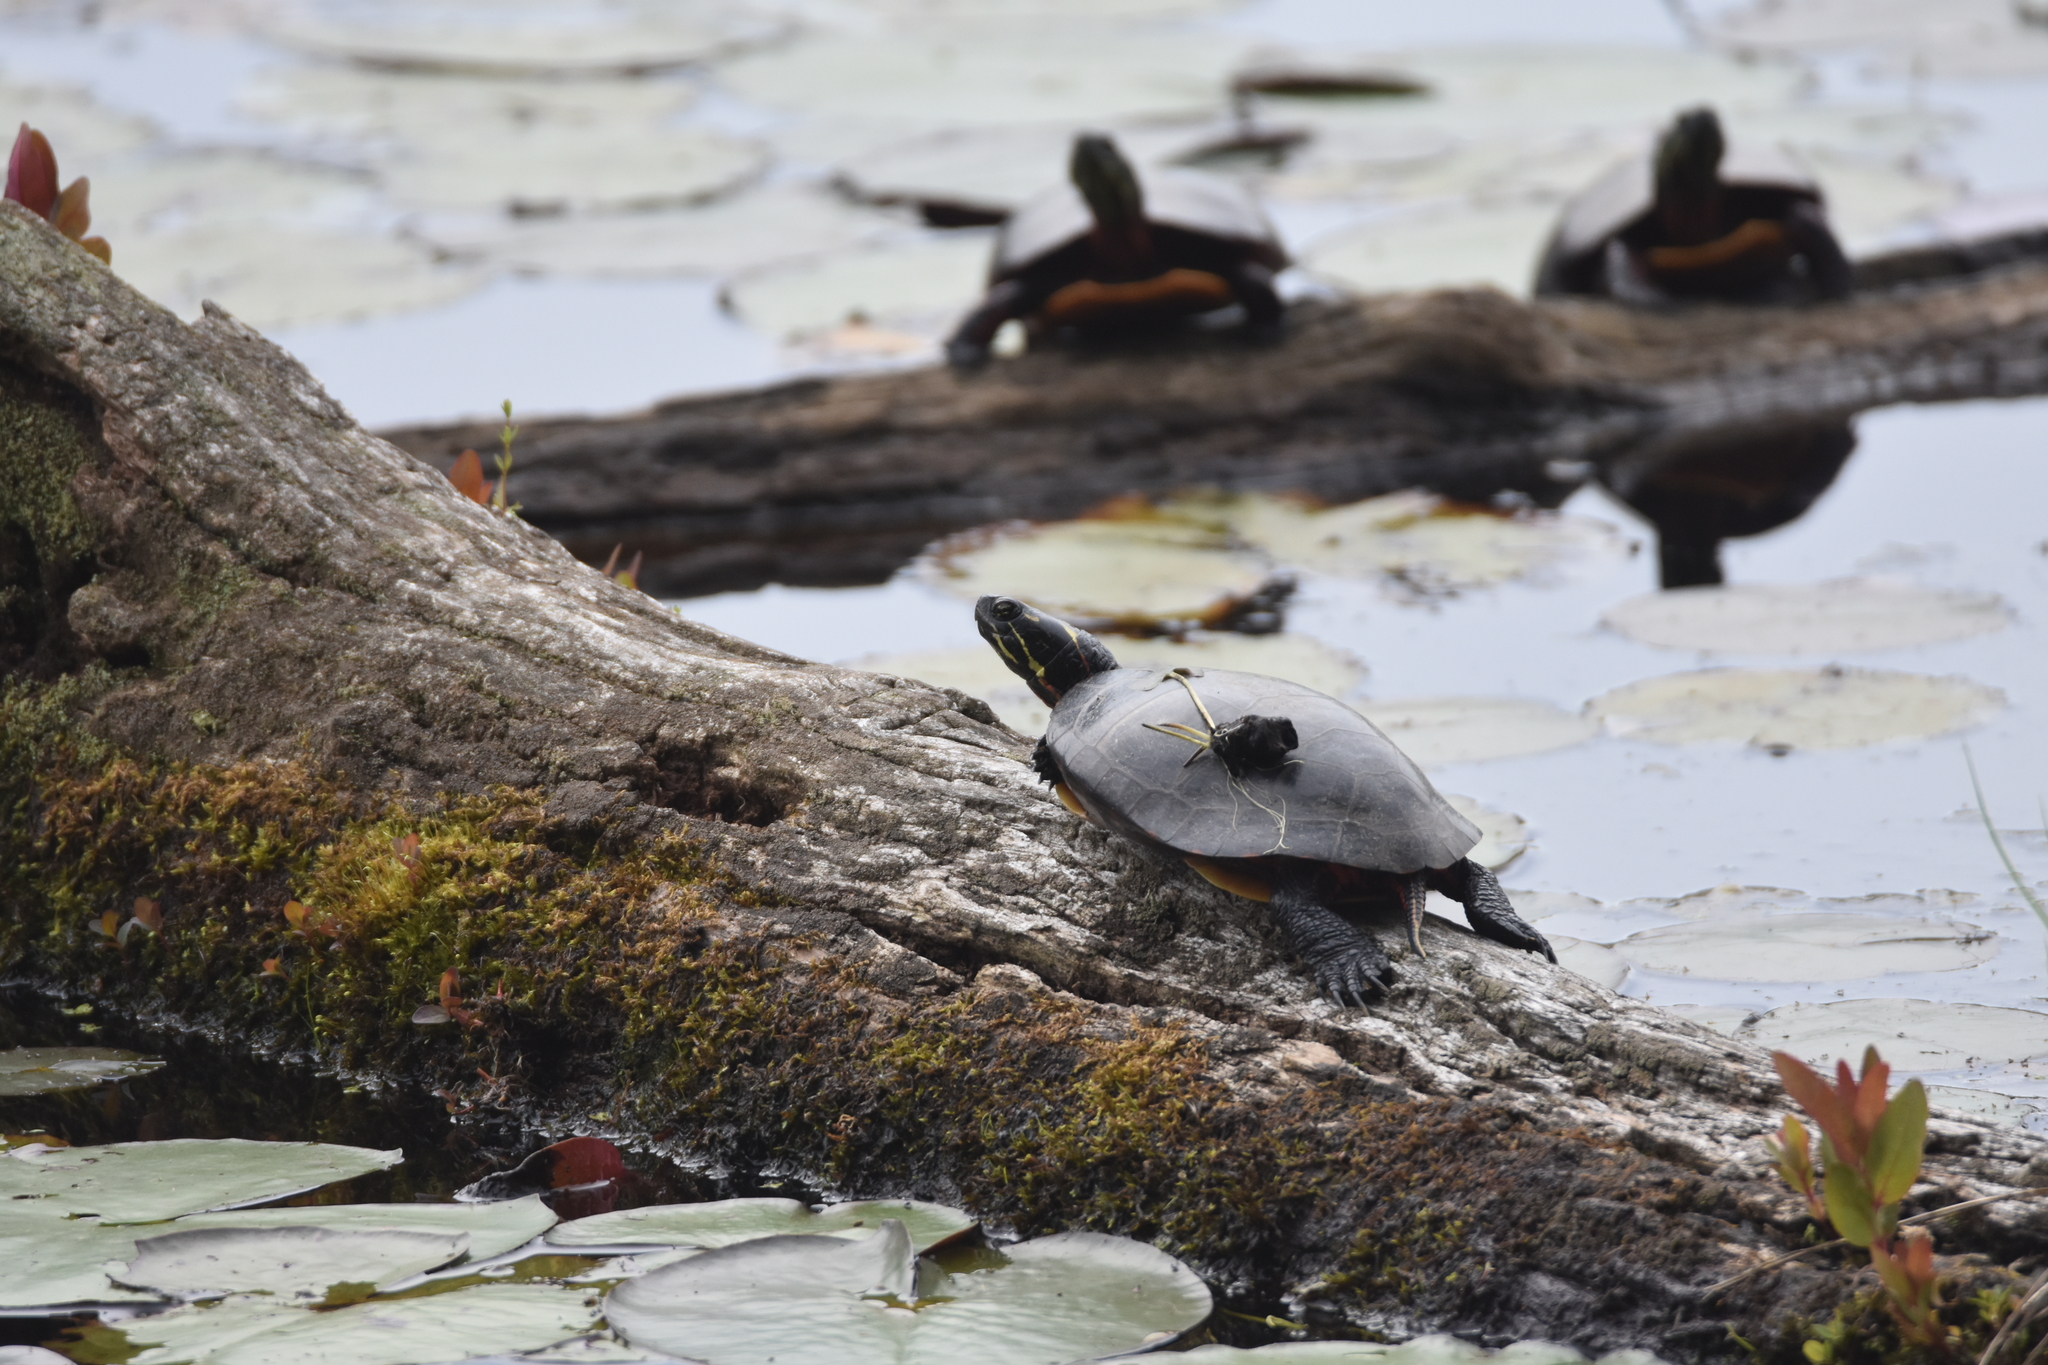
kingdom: Animalia
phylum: Chordata
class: Testudines
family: Emydidae
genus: Chrysemys
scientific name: Chrysemys picta
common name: Painted turtle
